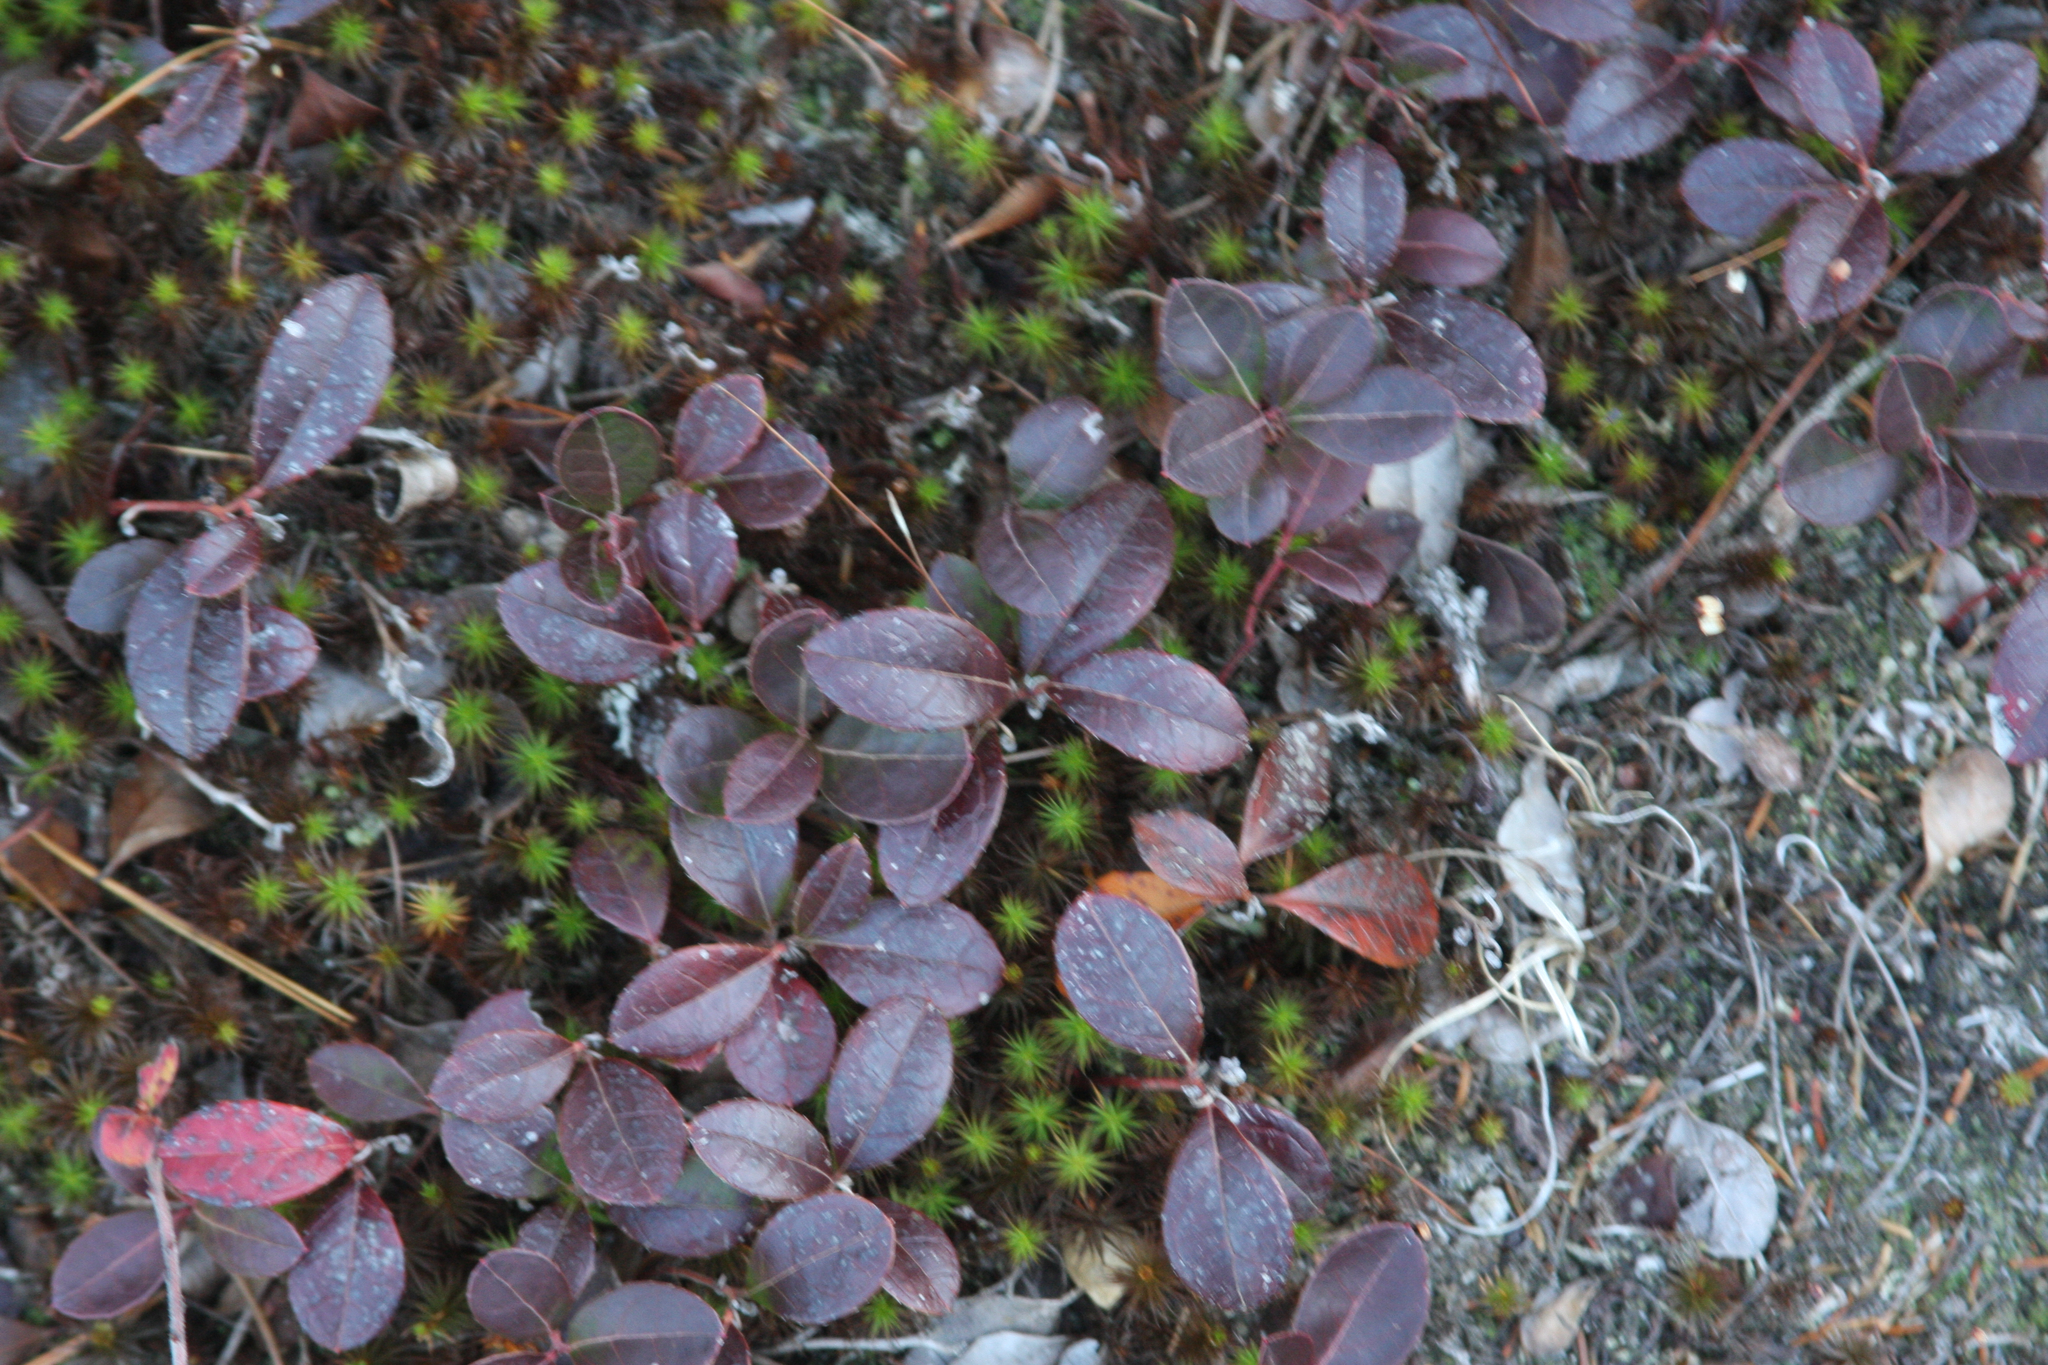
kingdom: Plantae
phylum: Tracheophyta
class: Magnoliopsida
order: Ericales
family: Ericaceae
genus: Gaultheria
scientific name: Gaultheria procumbens
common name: Checkerberry
